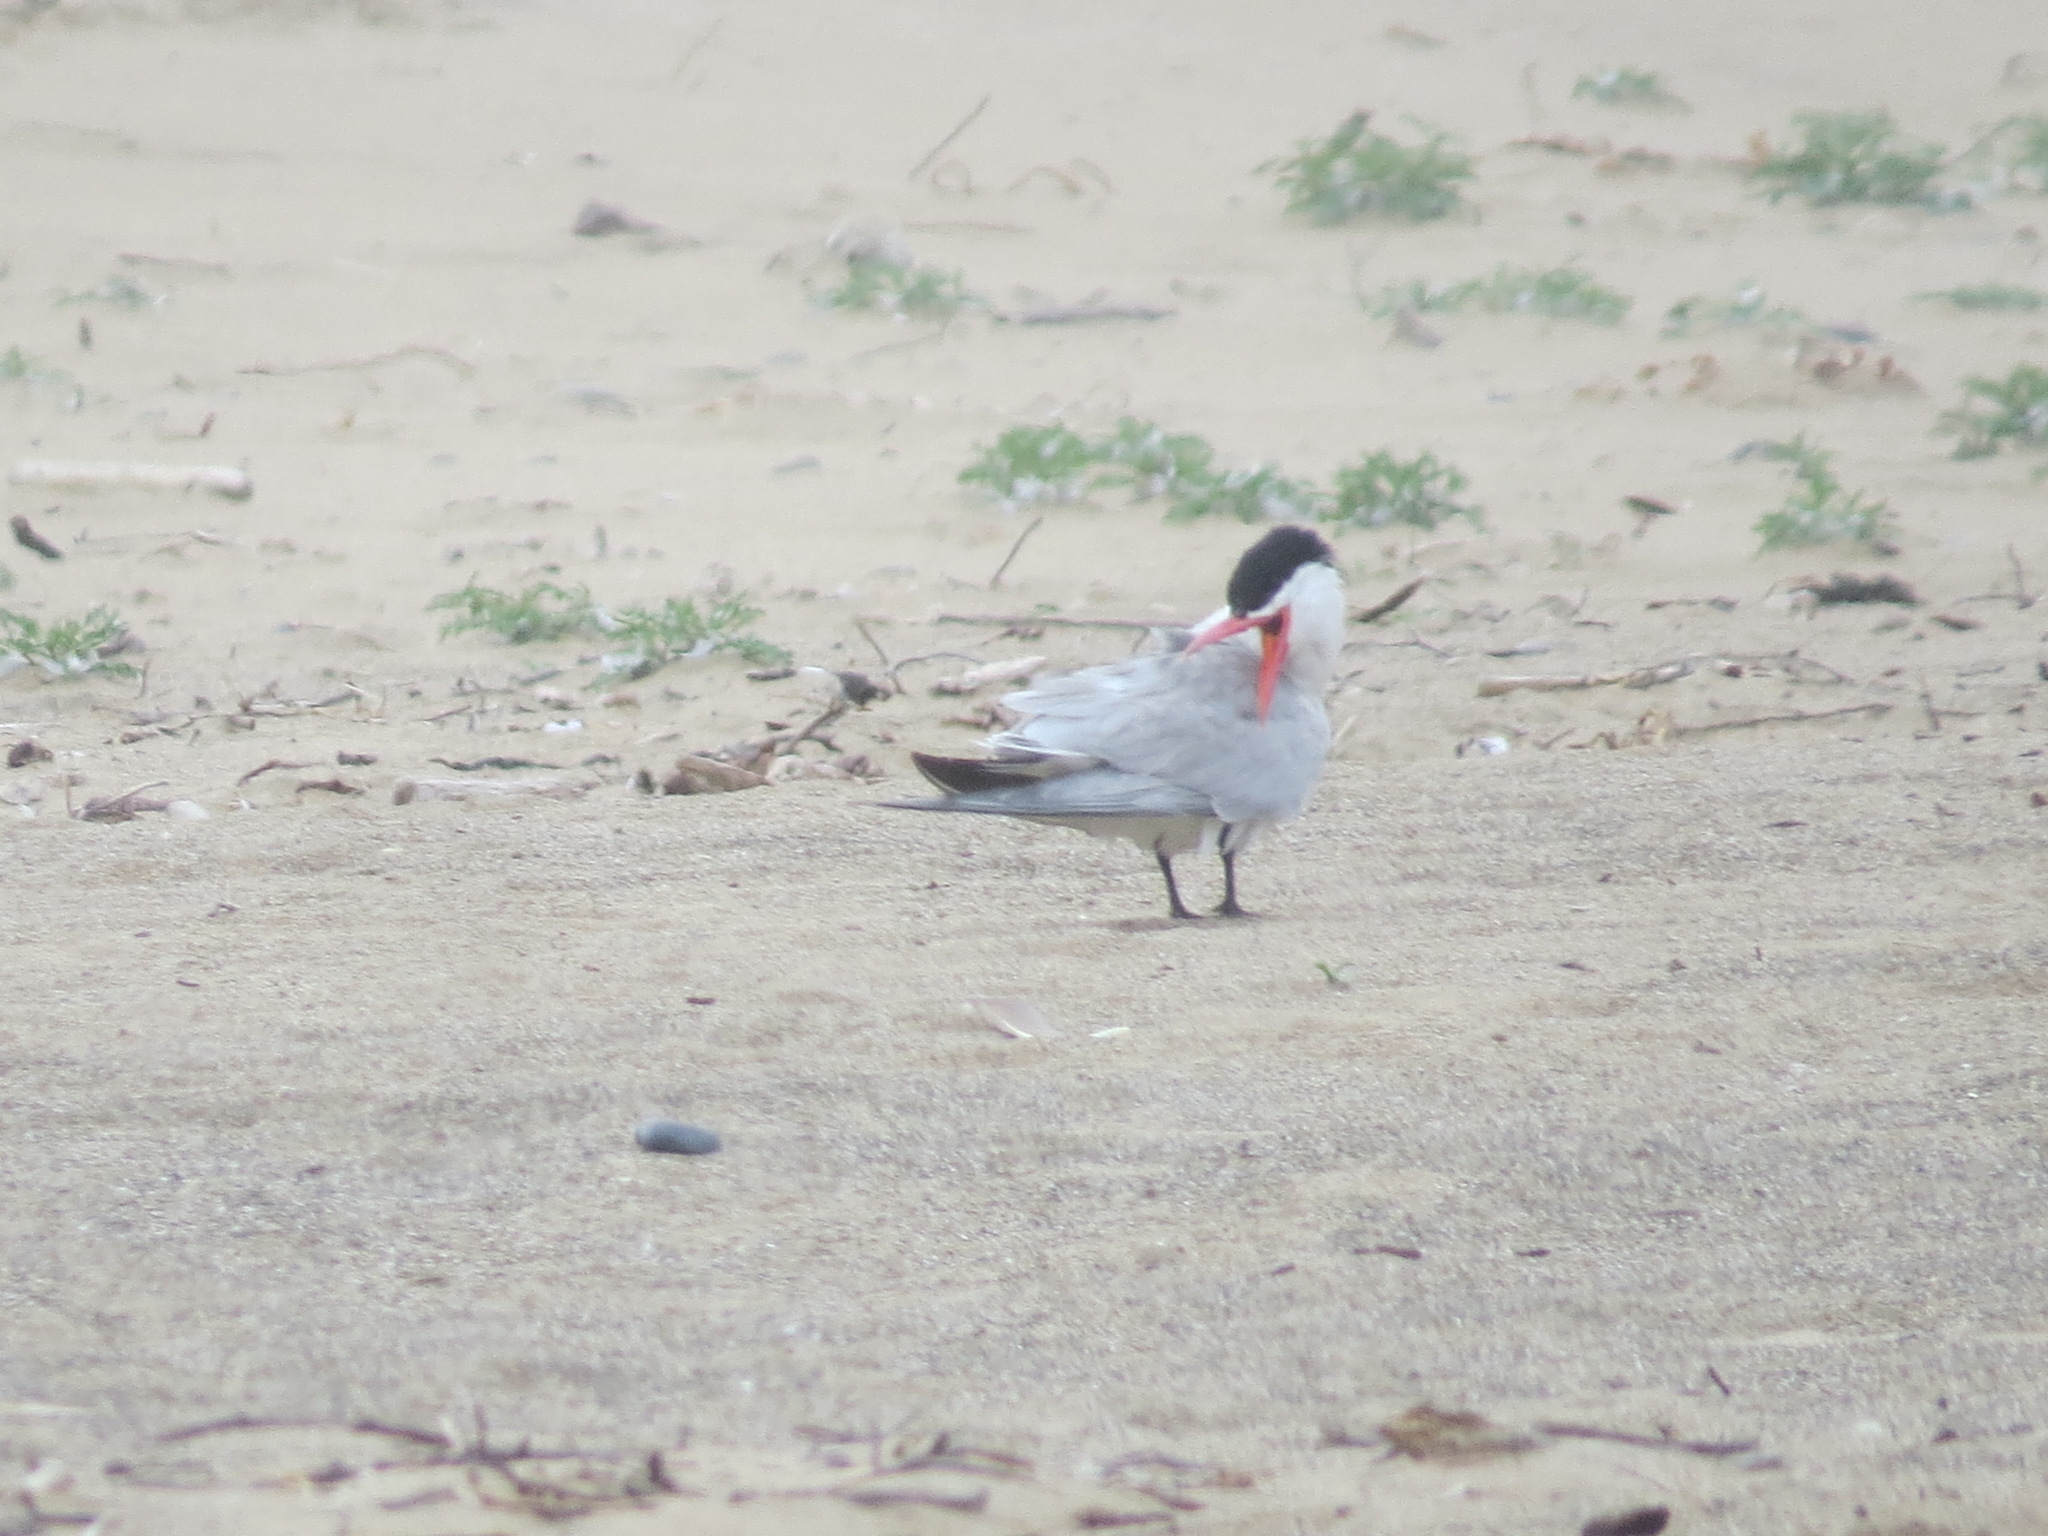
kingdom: Animalia
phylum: Chordata
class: Aves
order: Charadriiformes
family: Laridae
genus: Hydroprogne
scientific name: Hydroprogne caspia
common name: Caspian tern
